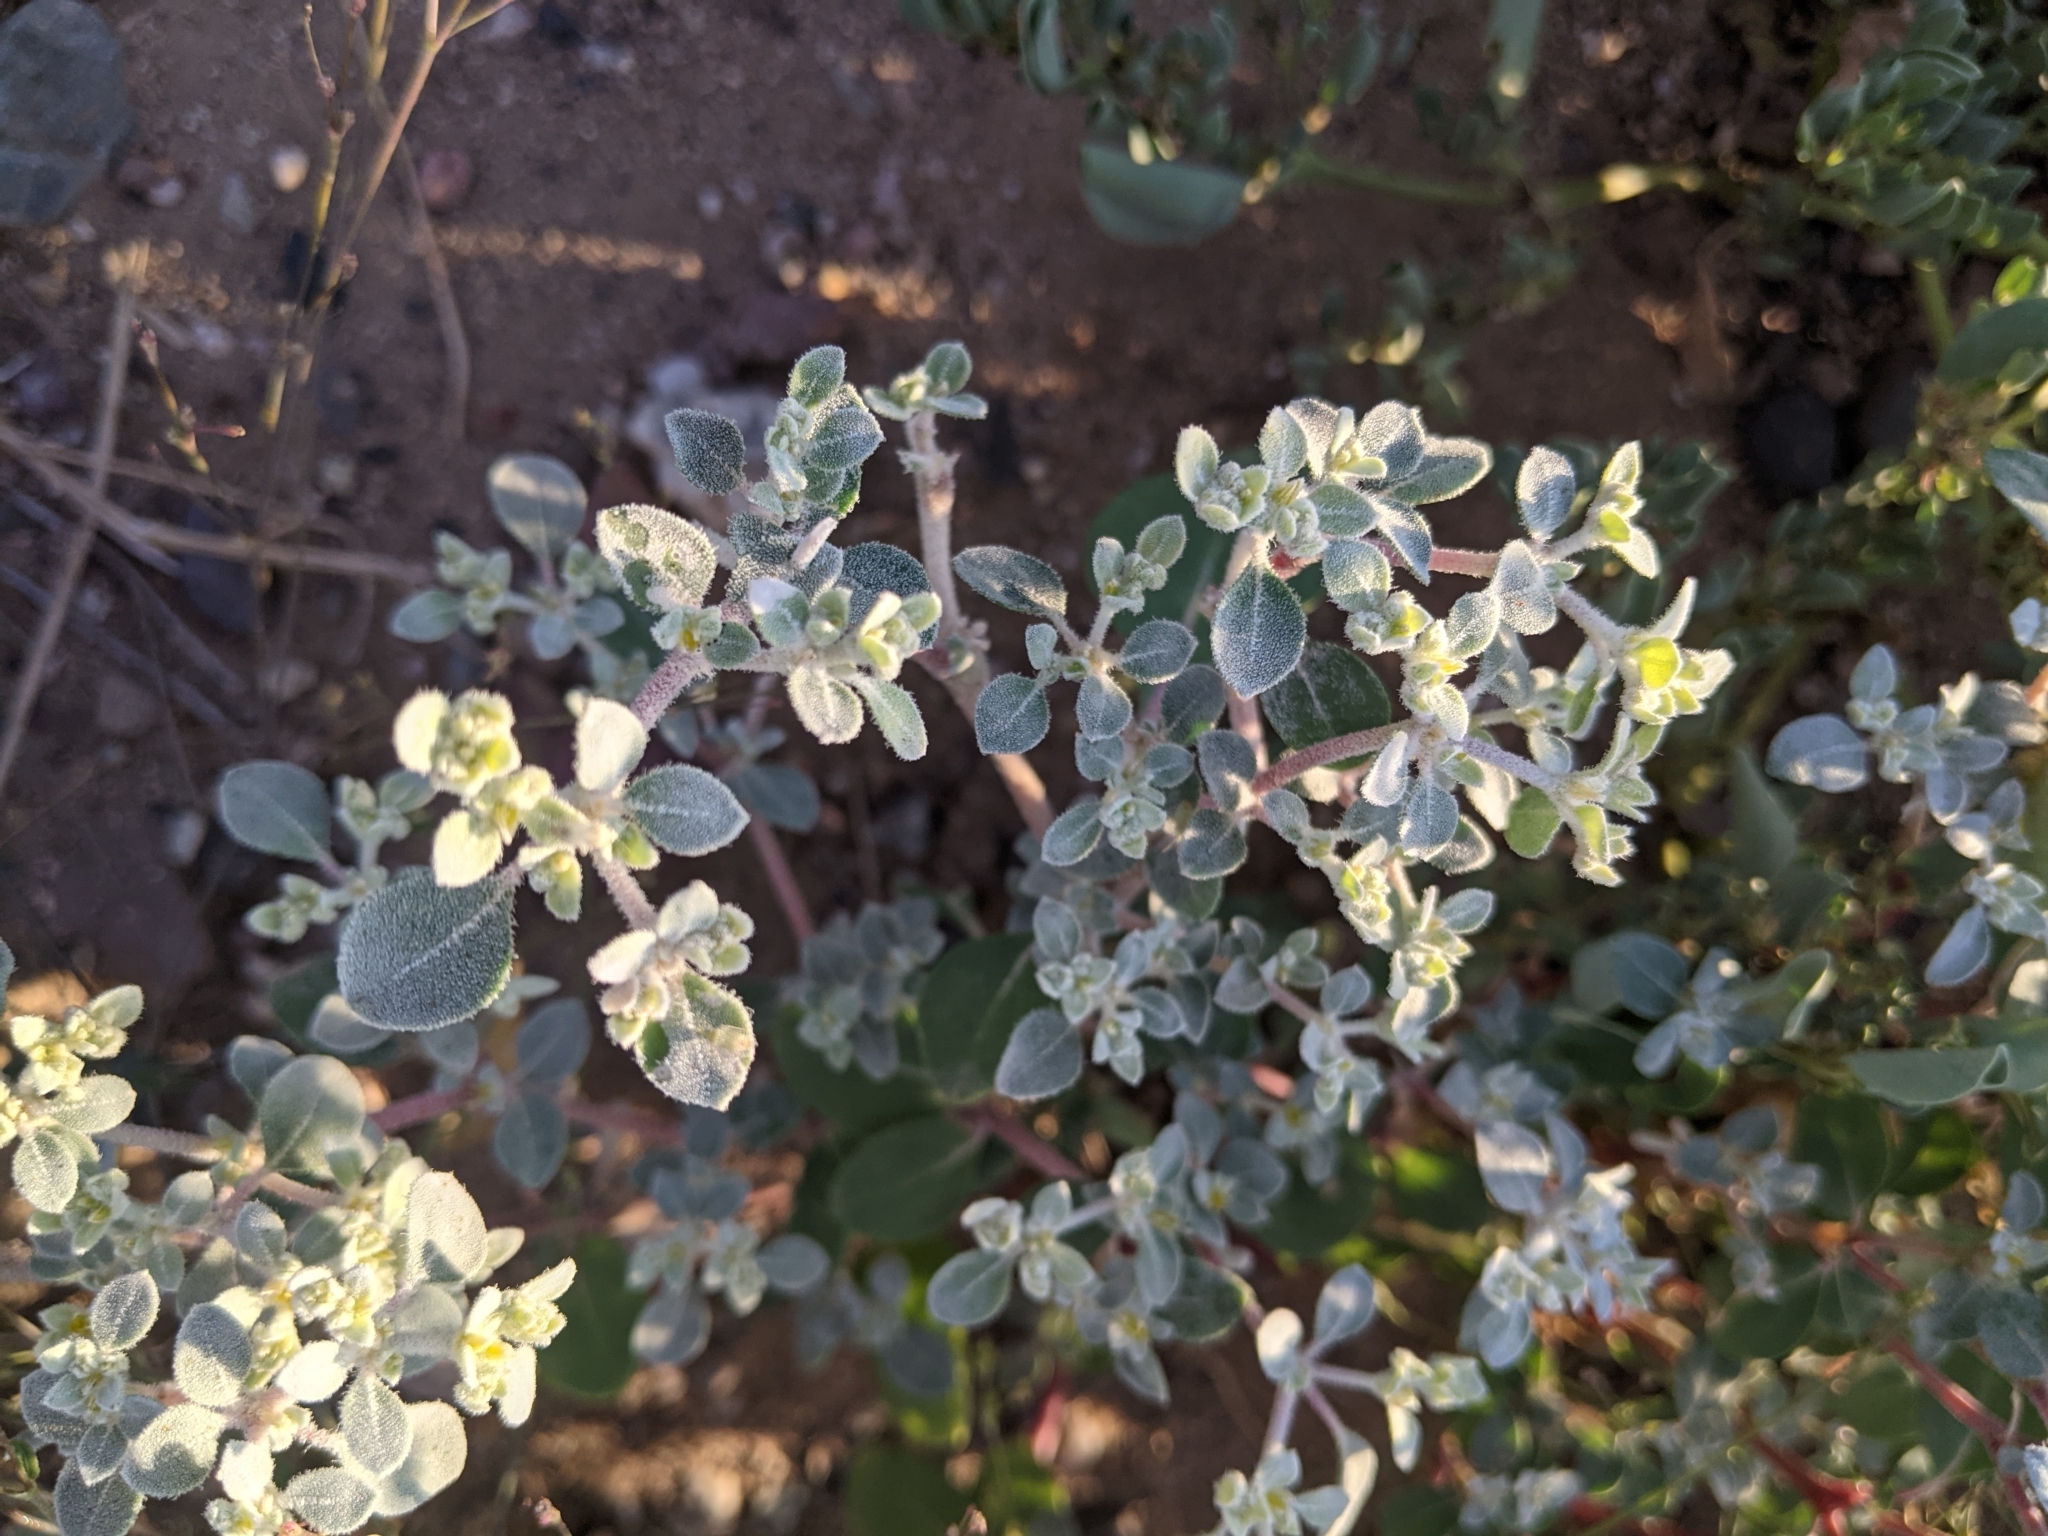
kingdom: Plantae
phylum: Tracheophyta
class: Magnoliopsida
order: Caryophyllales
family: Amaranthaceae
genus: Tidestromia
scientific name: Tidestromia lanuginosa
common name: Woolly tidestromia
